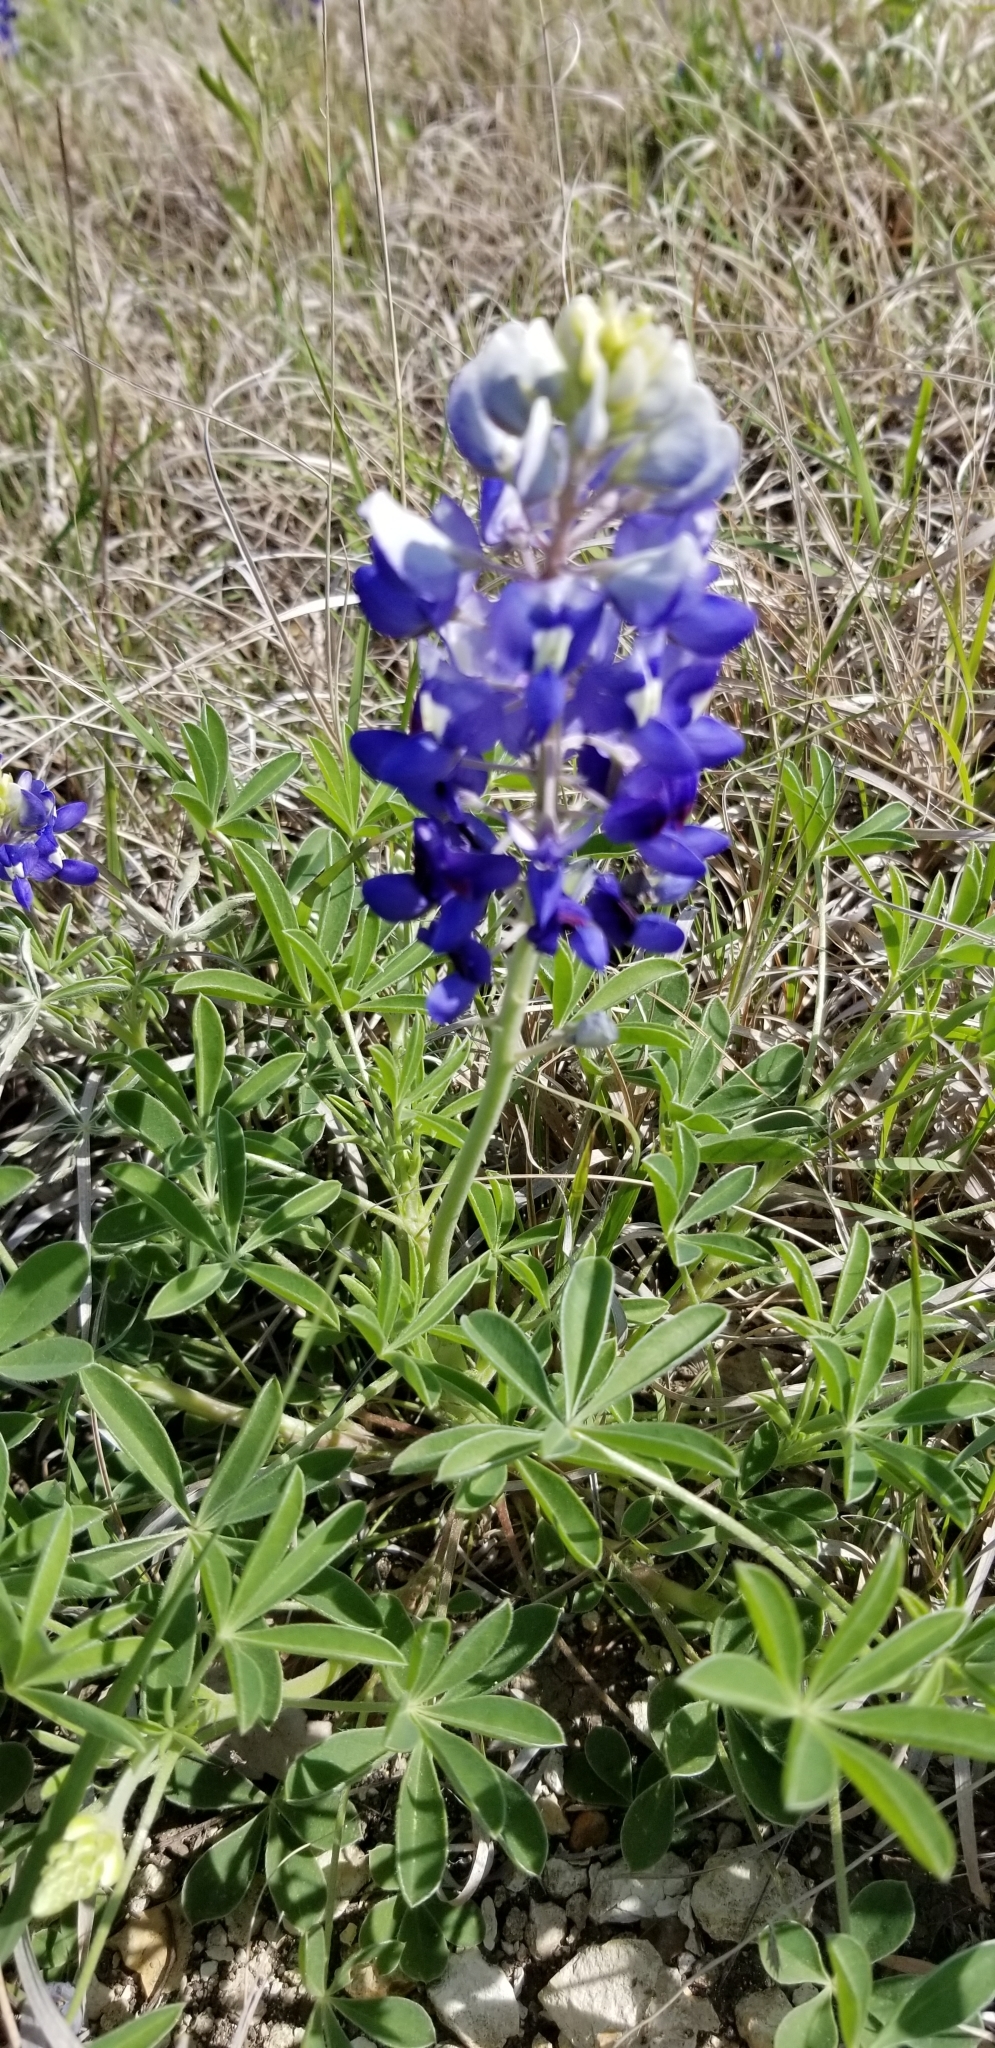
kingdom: Plantae
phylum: Tracheophyta
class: Magnoliopsida
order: Fabales
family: Fabaceae
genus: Lupinus
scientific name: Lupinus texensis
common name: Texas bluebonnet
